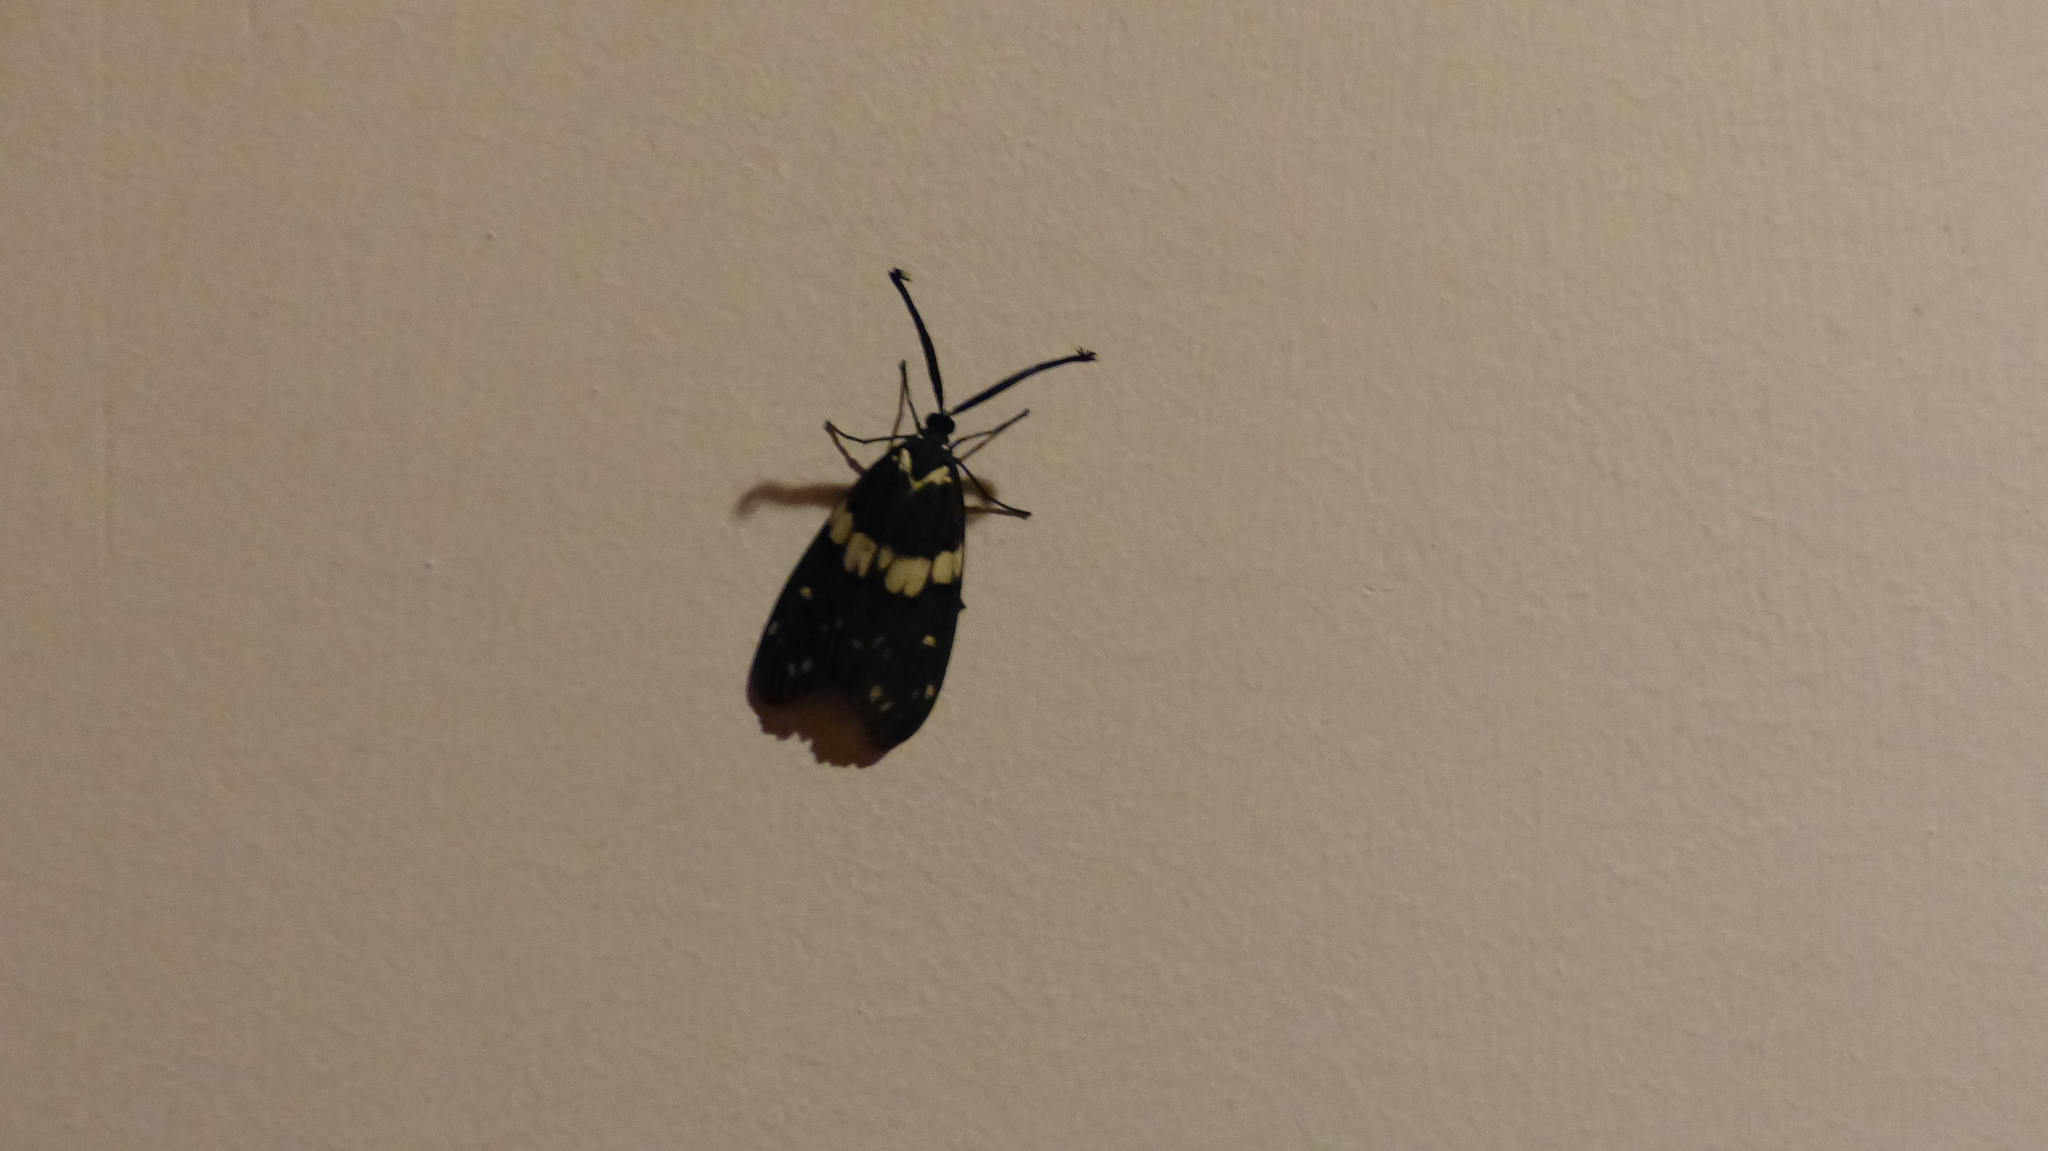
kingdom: Animalia
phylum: Arthropoda
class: Insecta
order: Lepidoptera
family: Zygaenidae
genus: Eterusia
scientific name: Eterusia aedea
